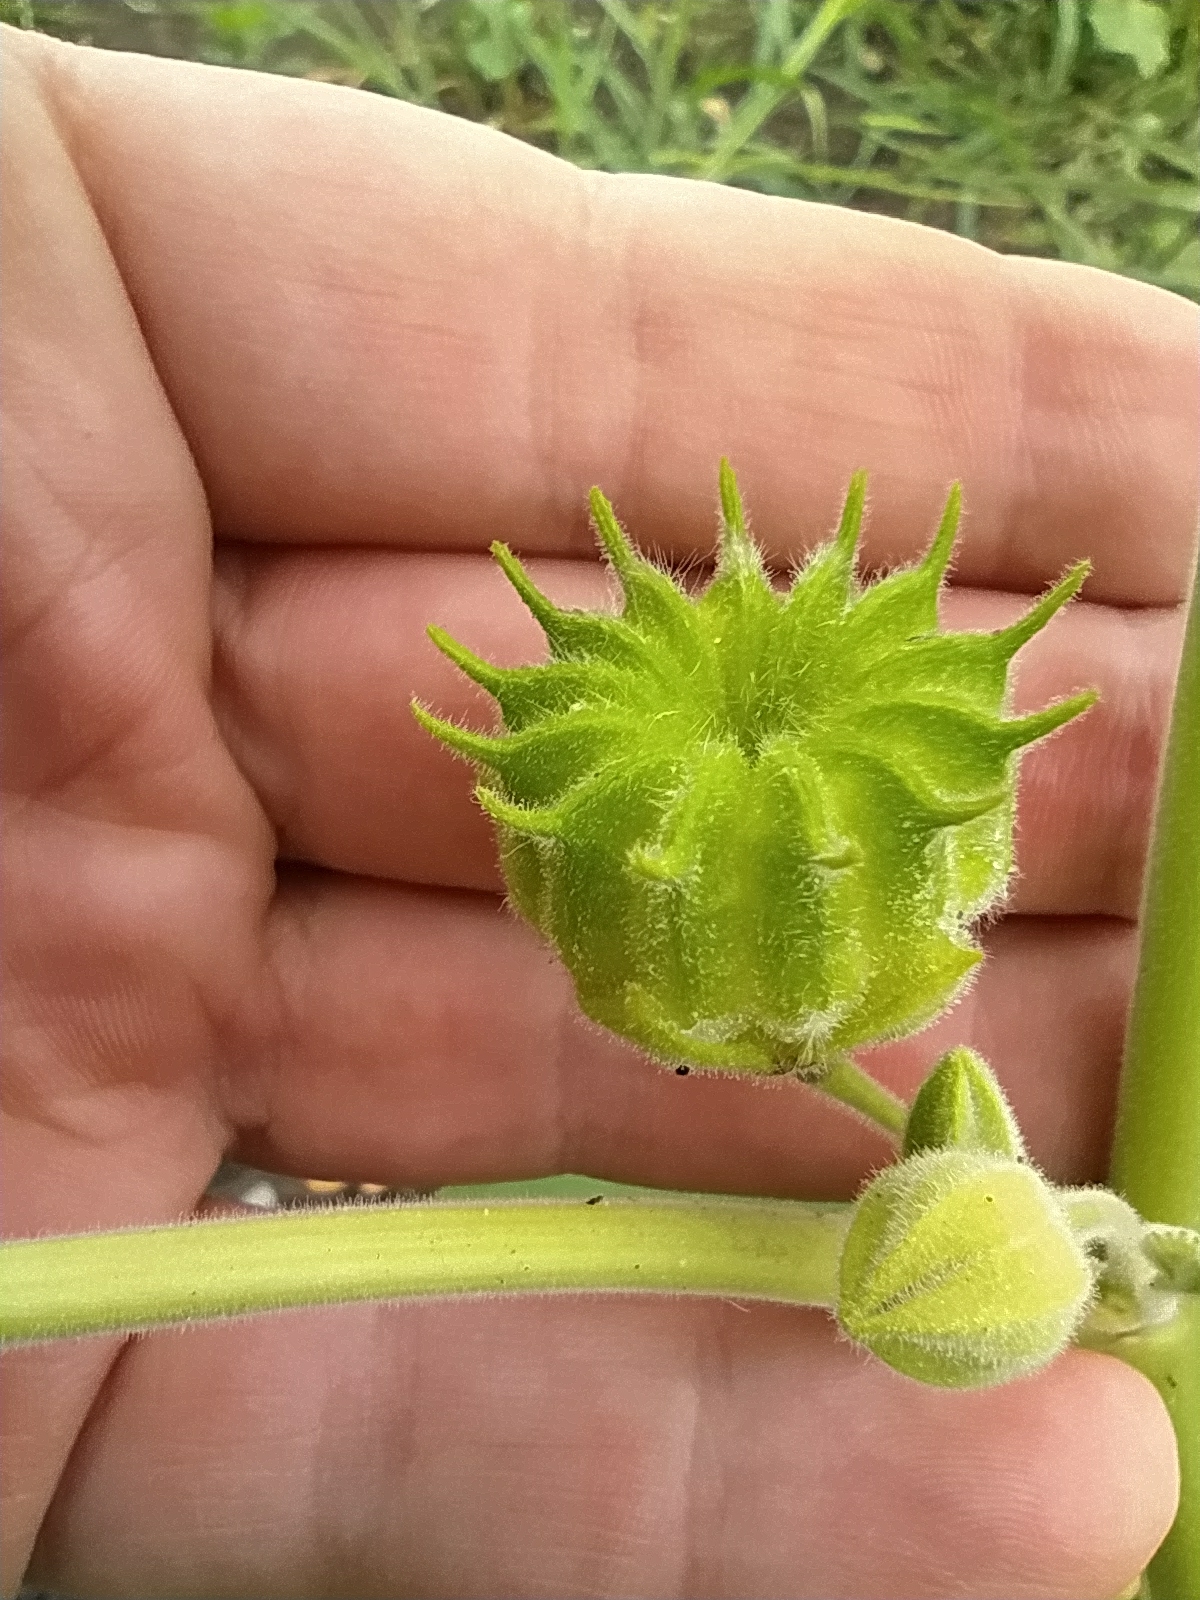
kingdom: Plantae
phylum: Tracheophyta
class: Magnoliopsida
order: Malvales
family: Malvaceae
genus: Abutilon
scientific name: Abutilon theophrasti
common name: Velvetleaf
